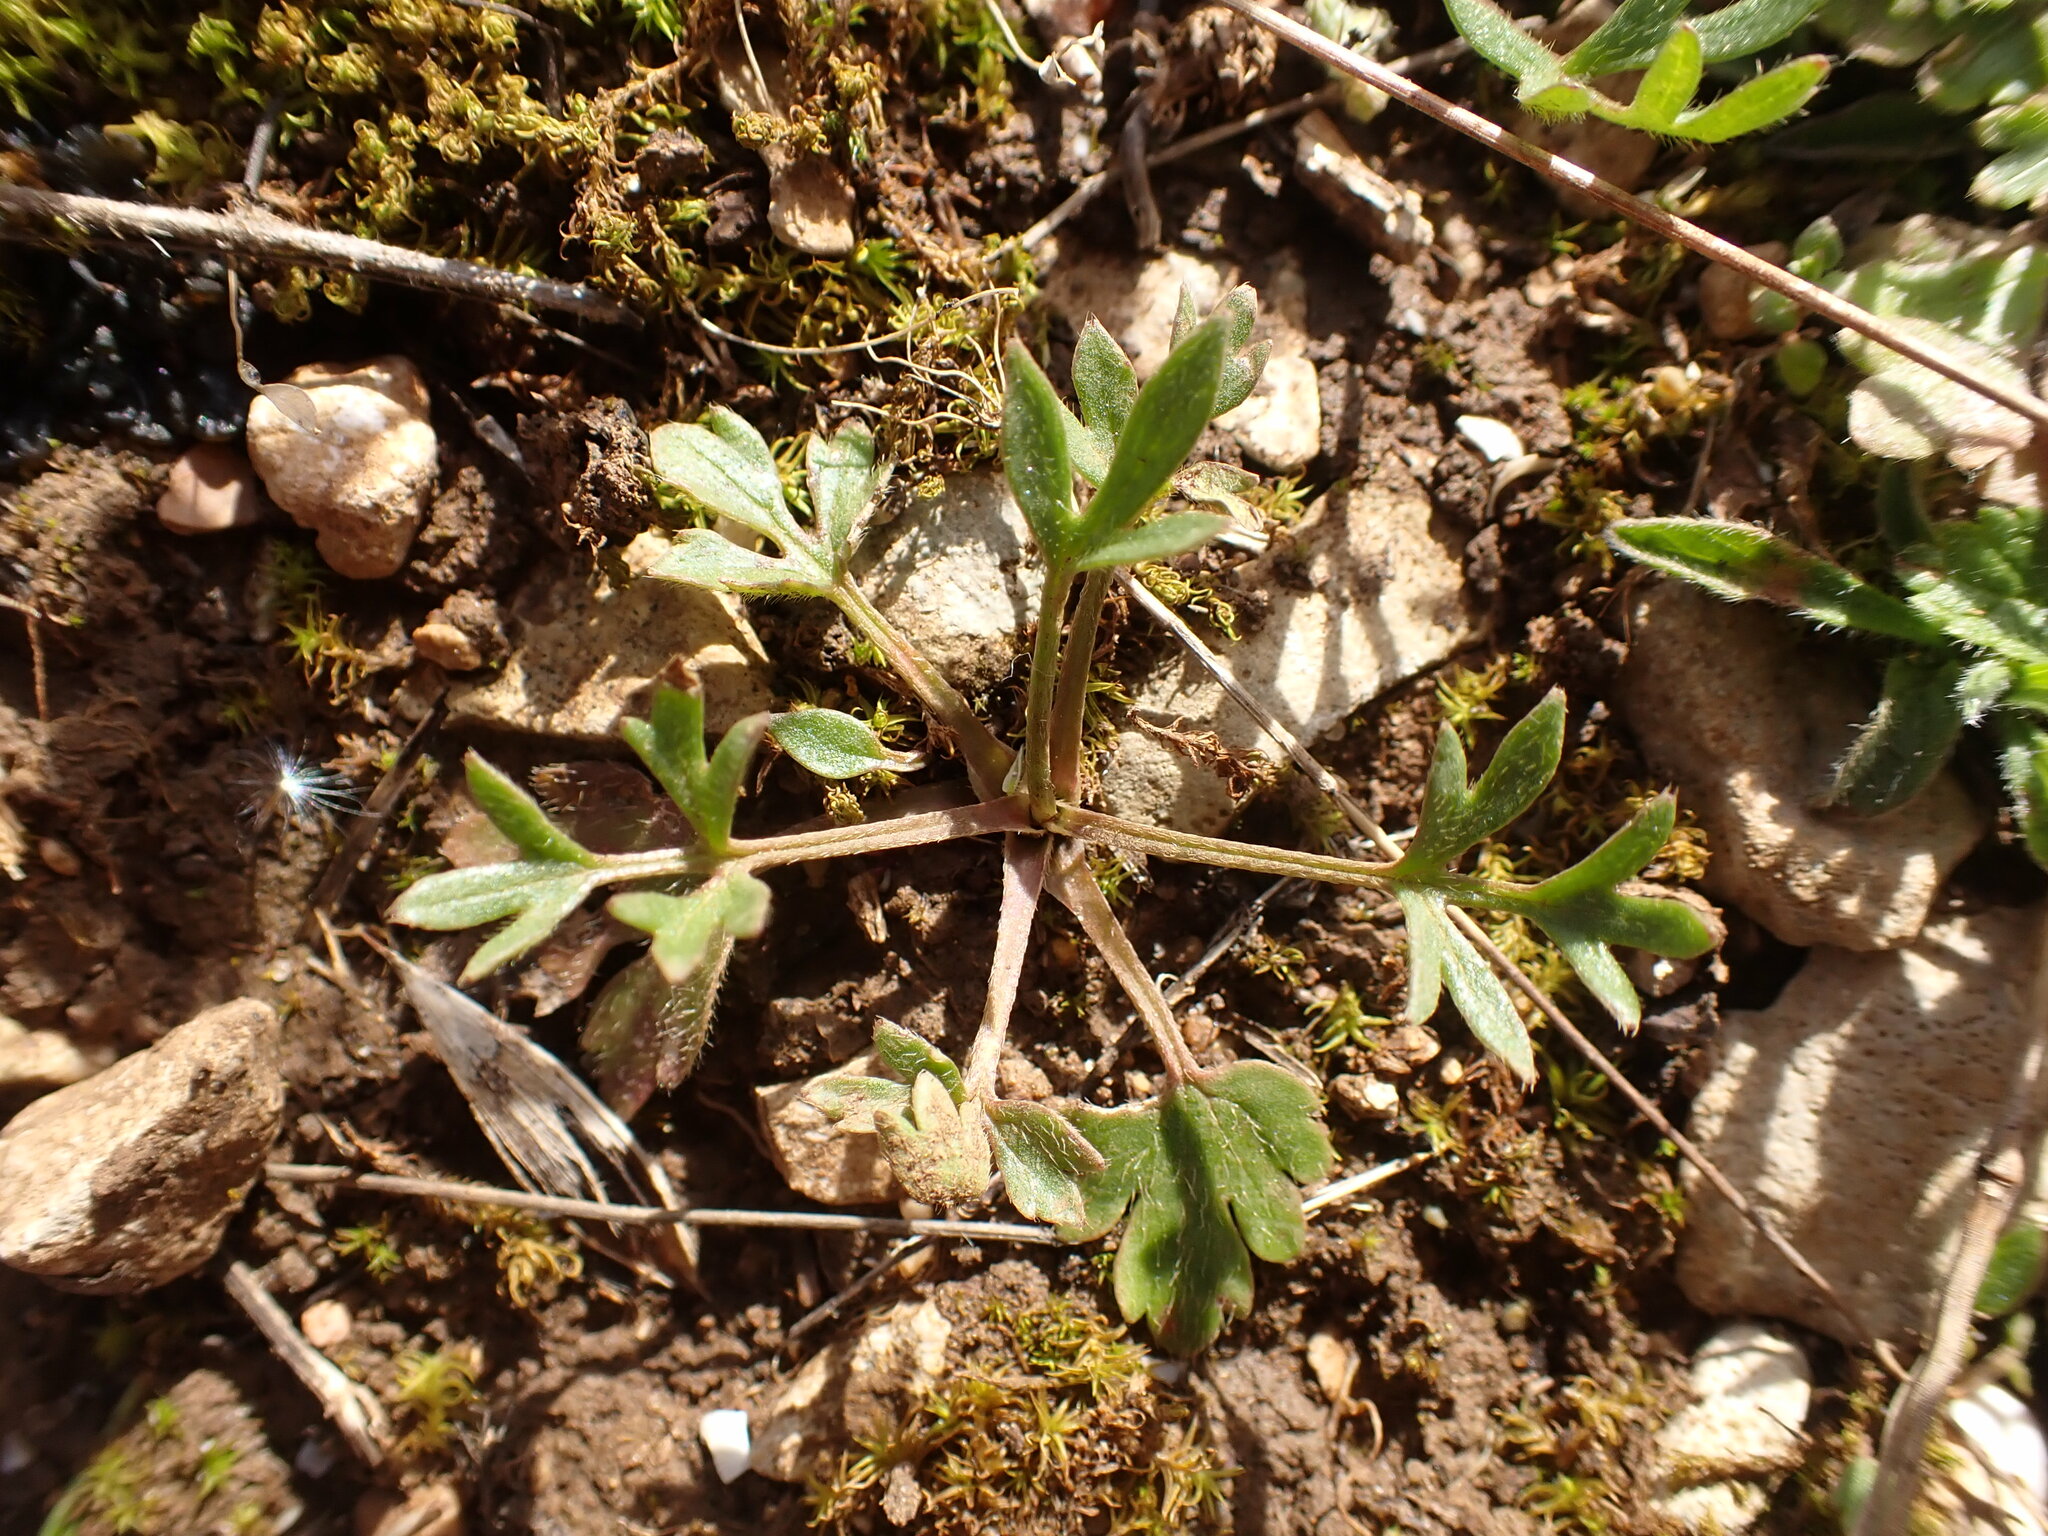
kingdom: Plantae
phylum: Tracheophyta
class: Magnoliopsida
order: Ranunculales
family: Ranunculaceae
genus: Ranunculus
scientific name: Ranunculus paludosus
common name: Jersey buttercup
